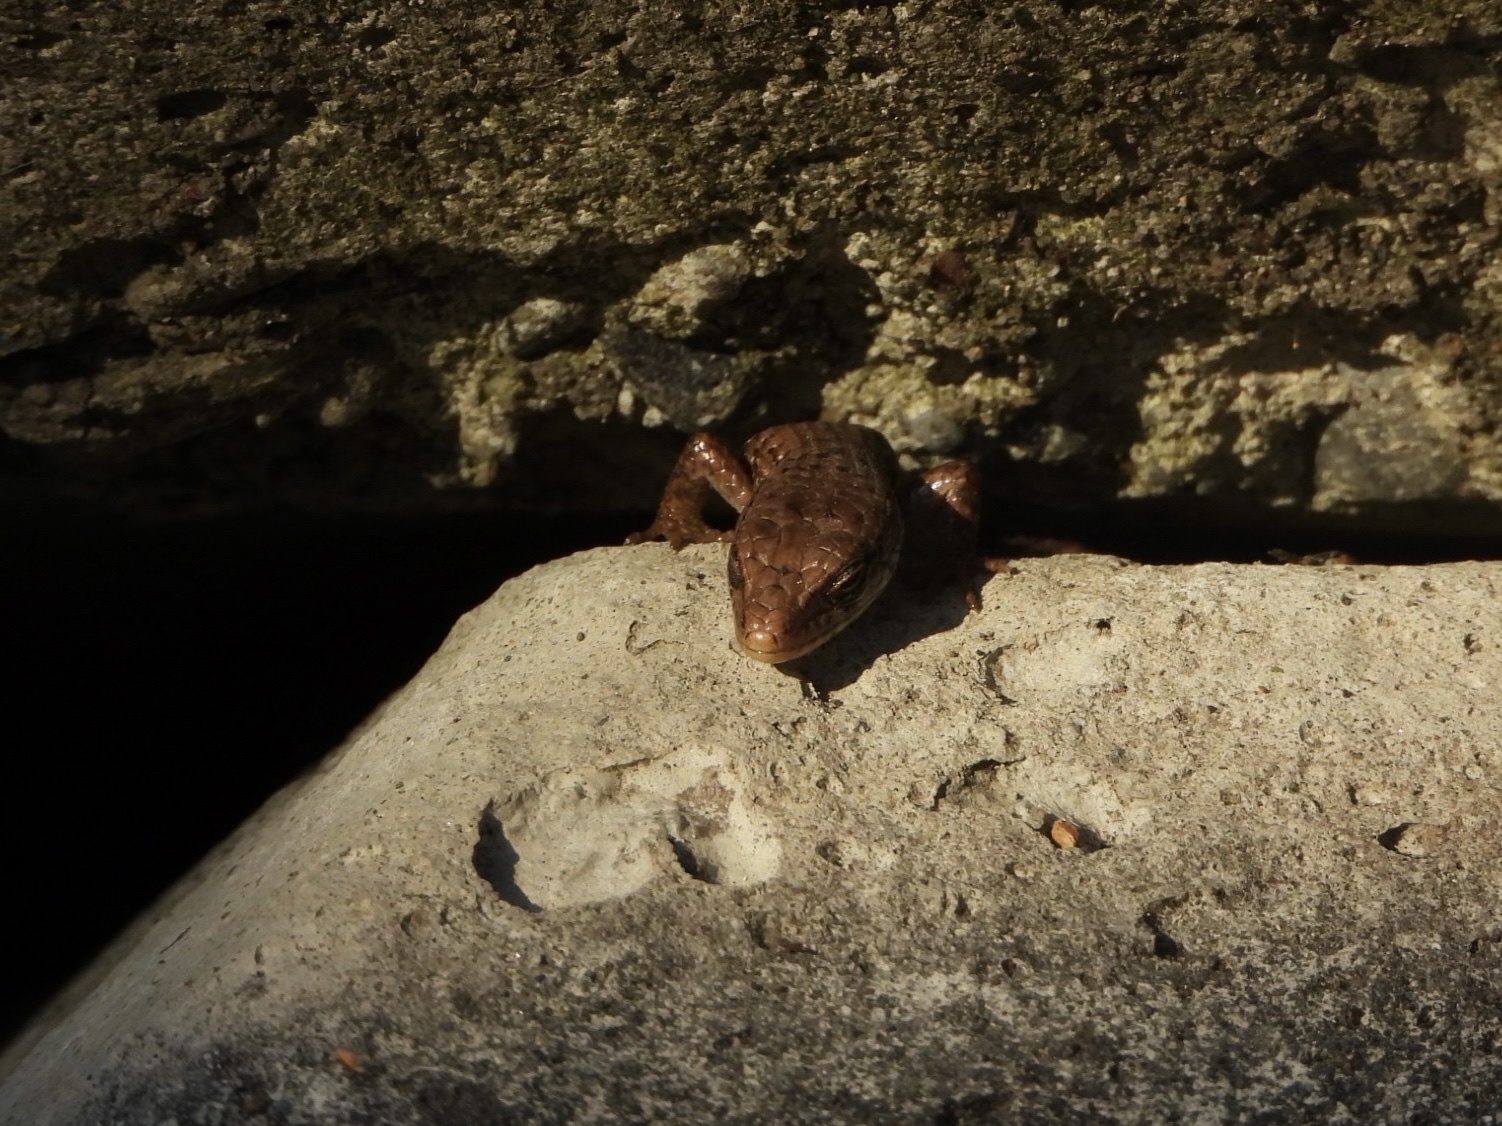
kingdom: Animalia
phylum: Chordata
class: Squamata
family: Anguidae
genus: Elgaria
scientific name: Elgaria coerulea
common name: Northern alligator lizard
